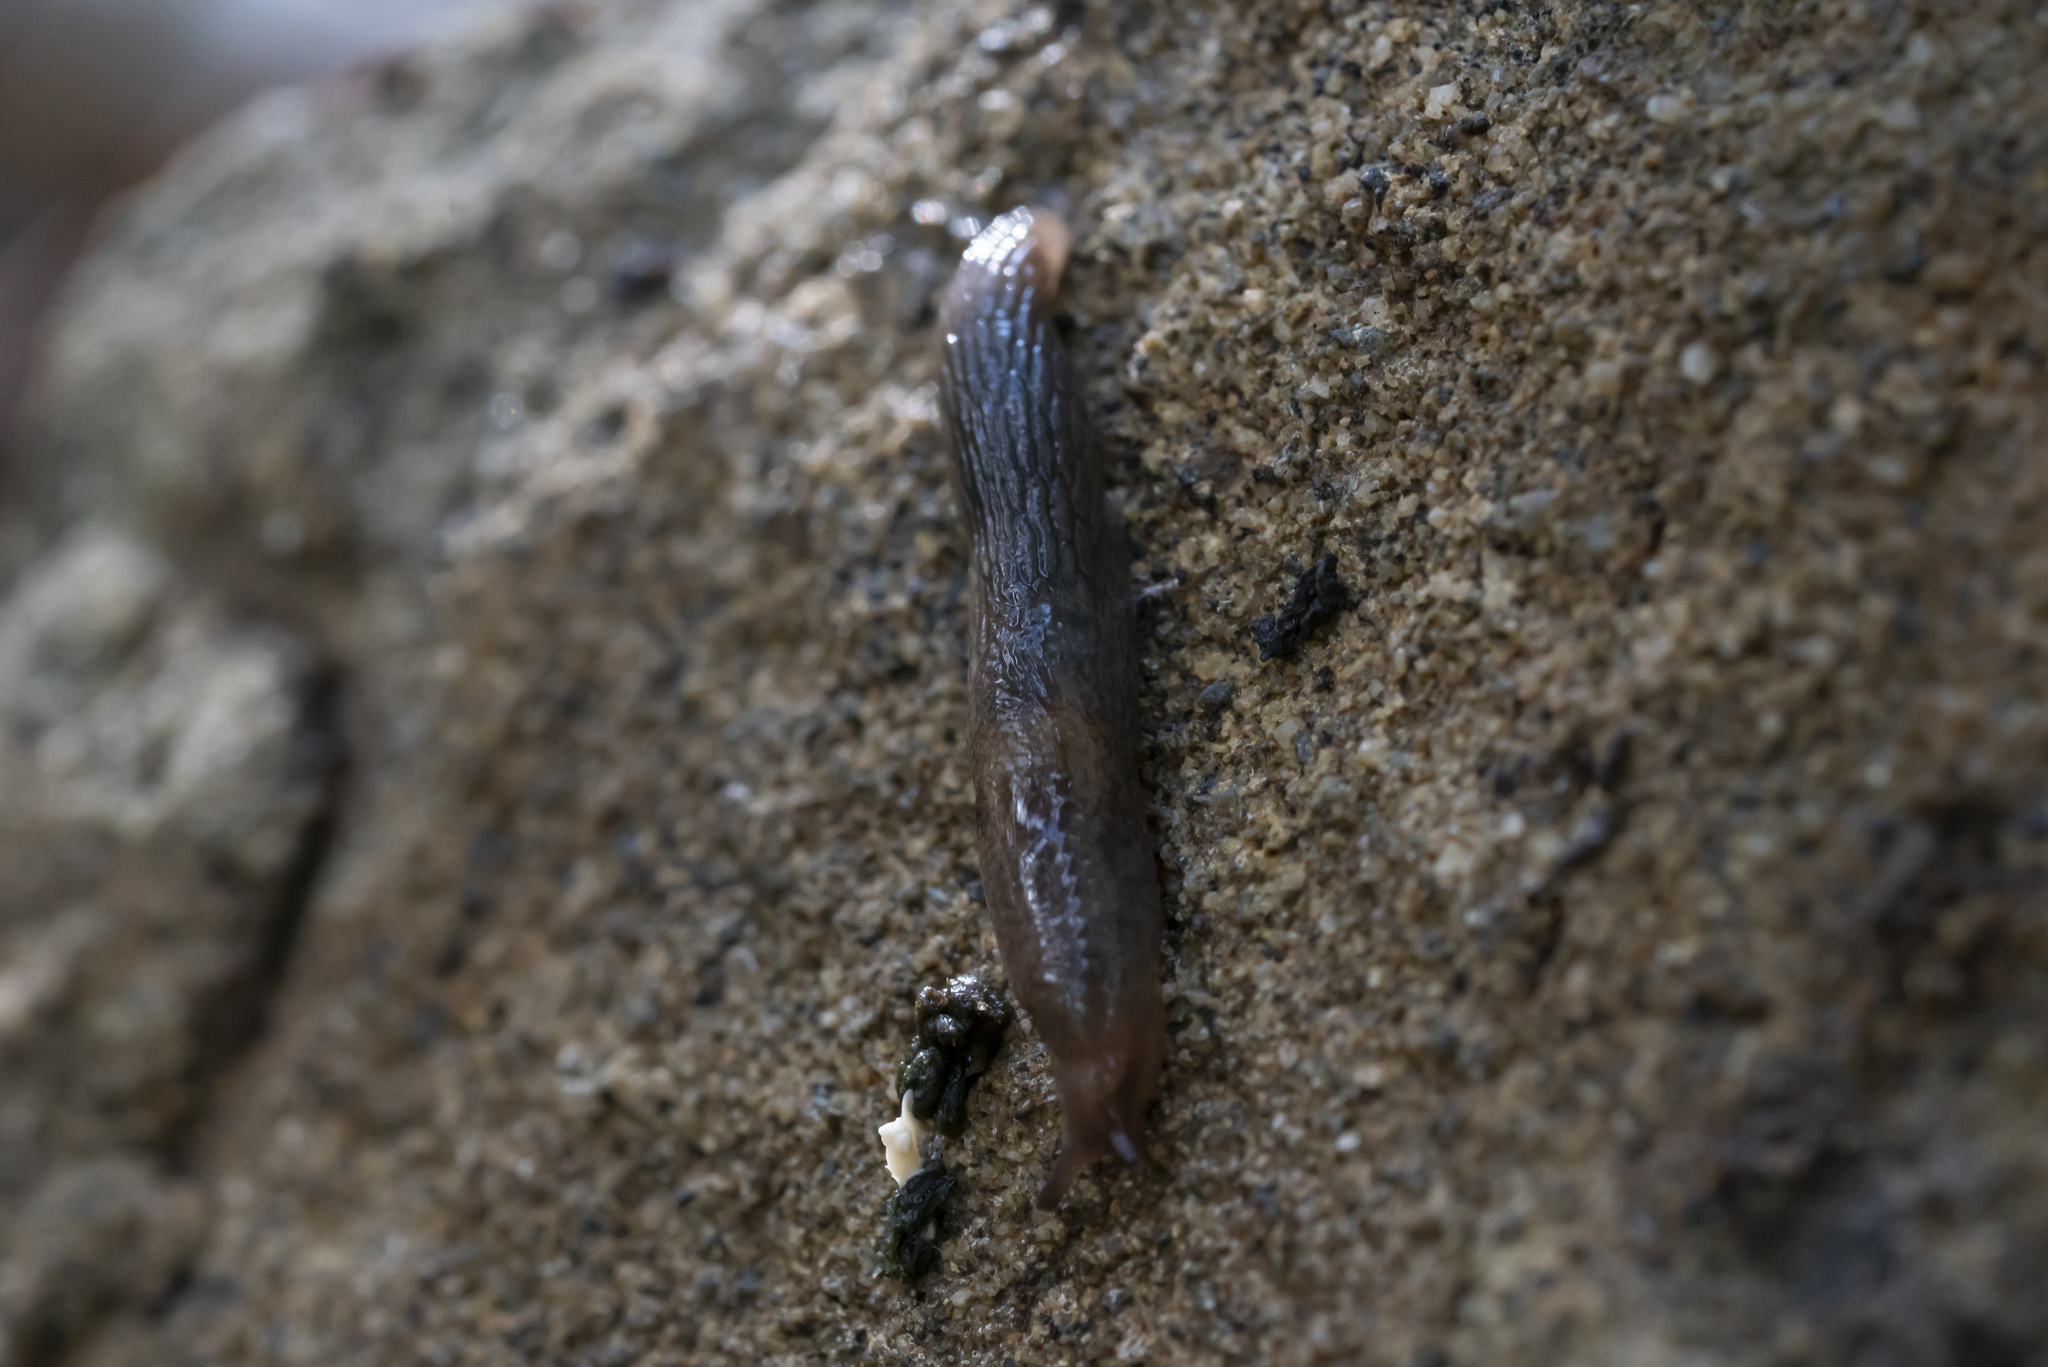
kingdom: Animalia
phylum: Mollusca
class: Gastropoda
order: Stylommatophora
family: Agriolimacidae
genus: Deroceras
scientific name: Deroceras neuteboomi
